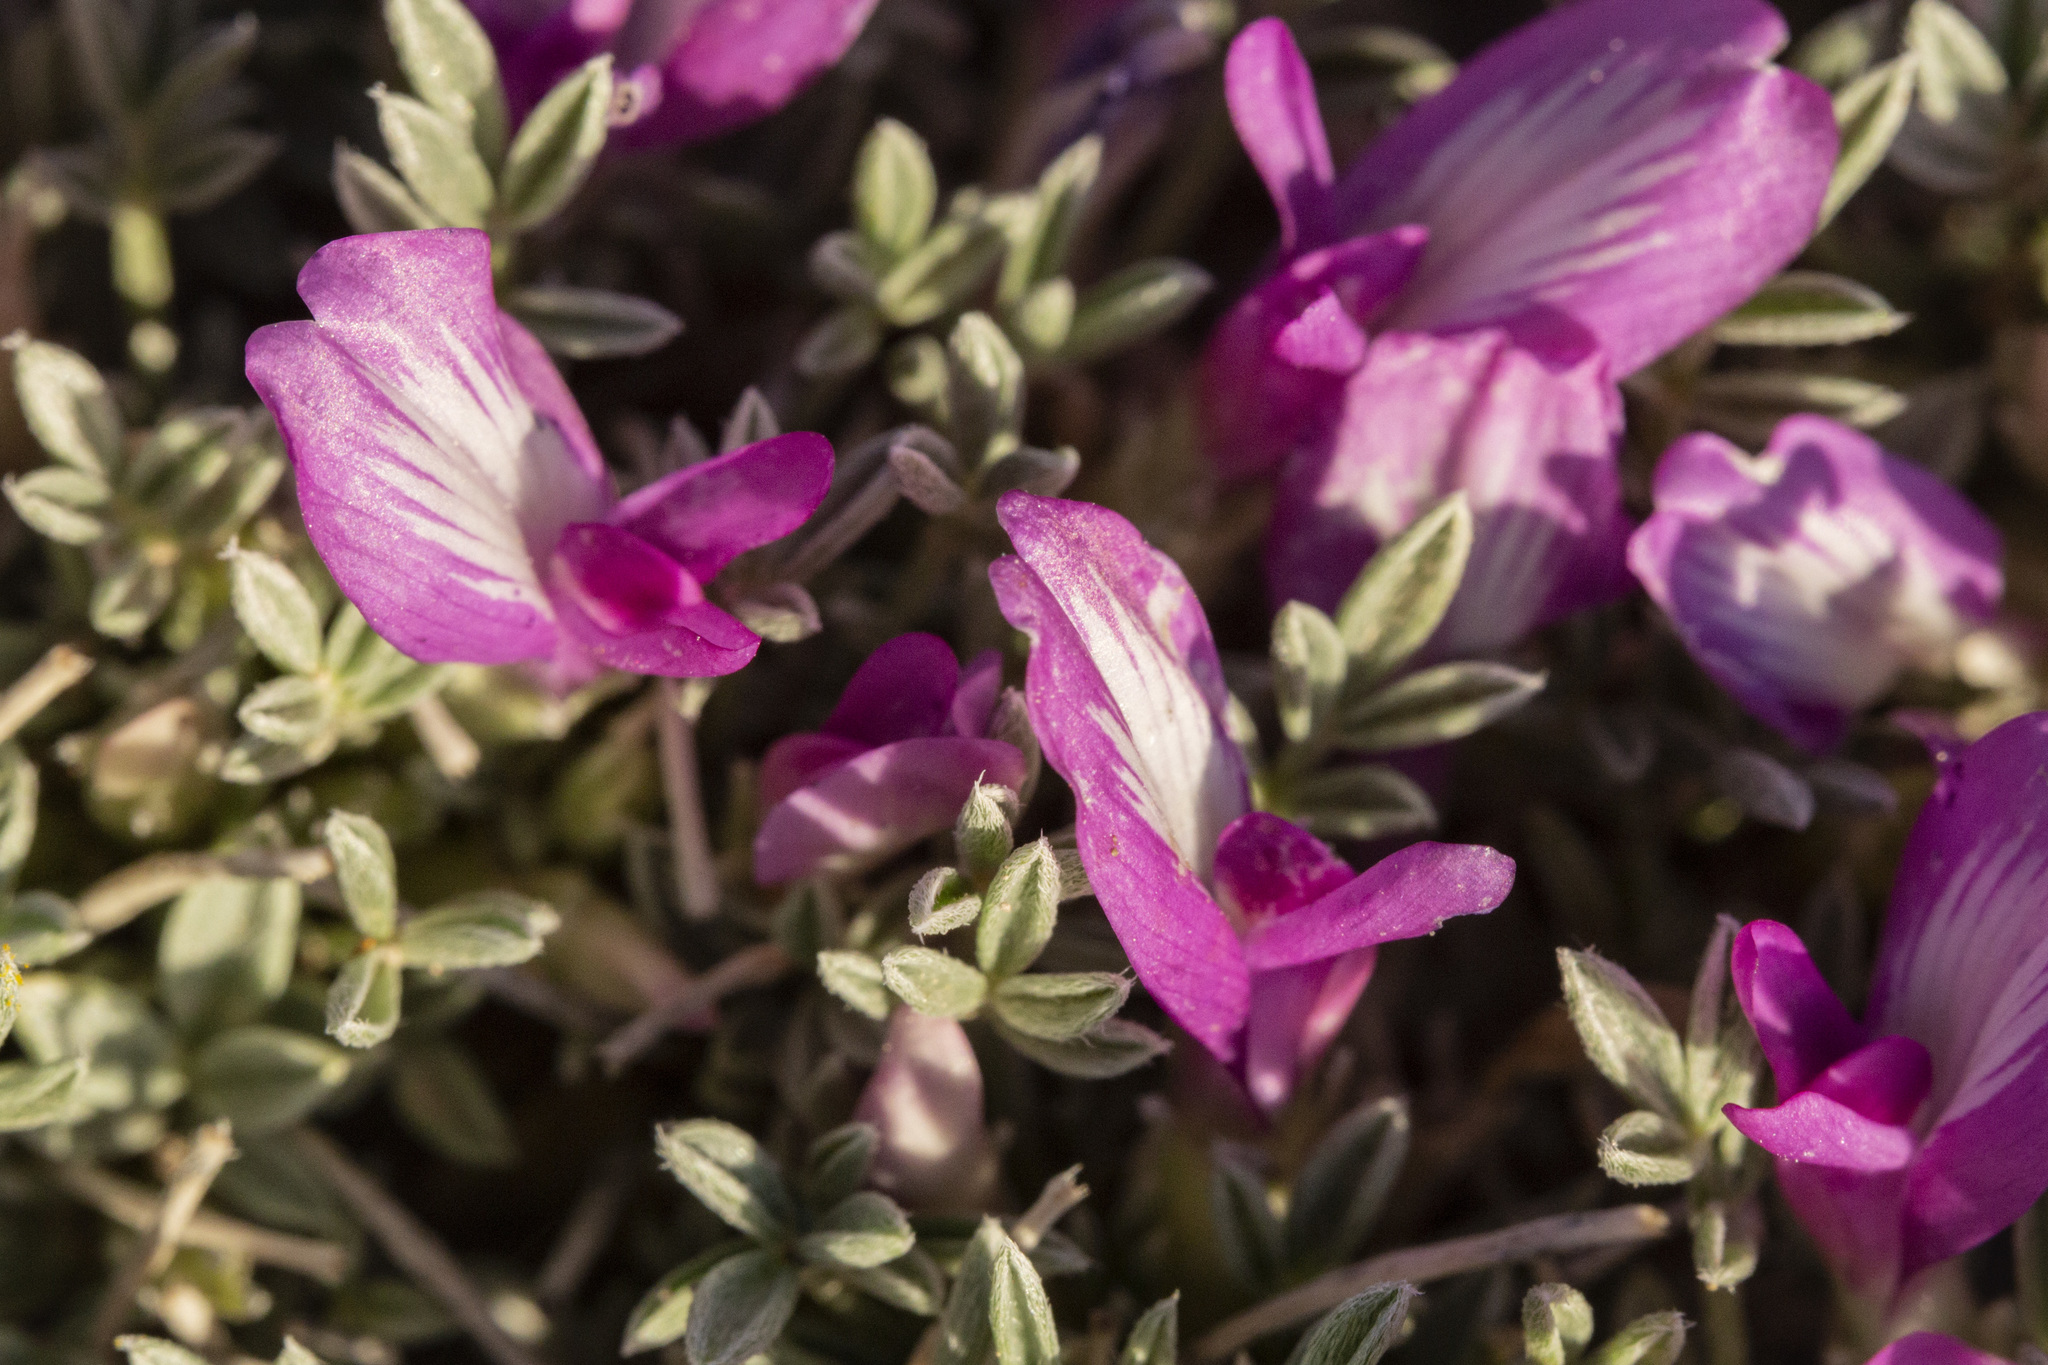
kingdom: Plantae
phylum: Tracheophyta
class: Magnoliopsida
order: Fabales
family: Fabaceae
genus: Astragalus
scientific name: Astragalus wittmannii
